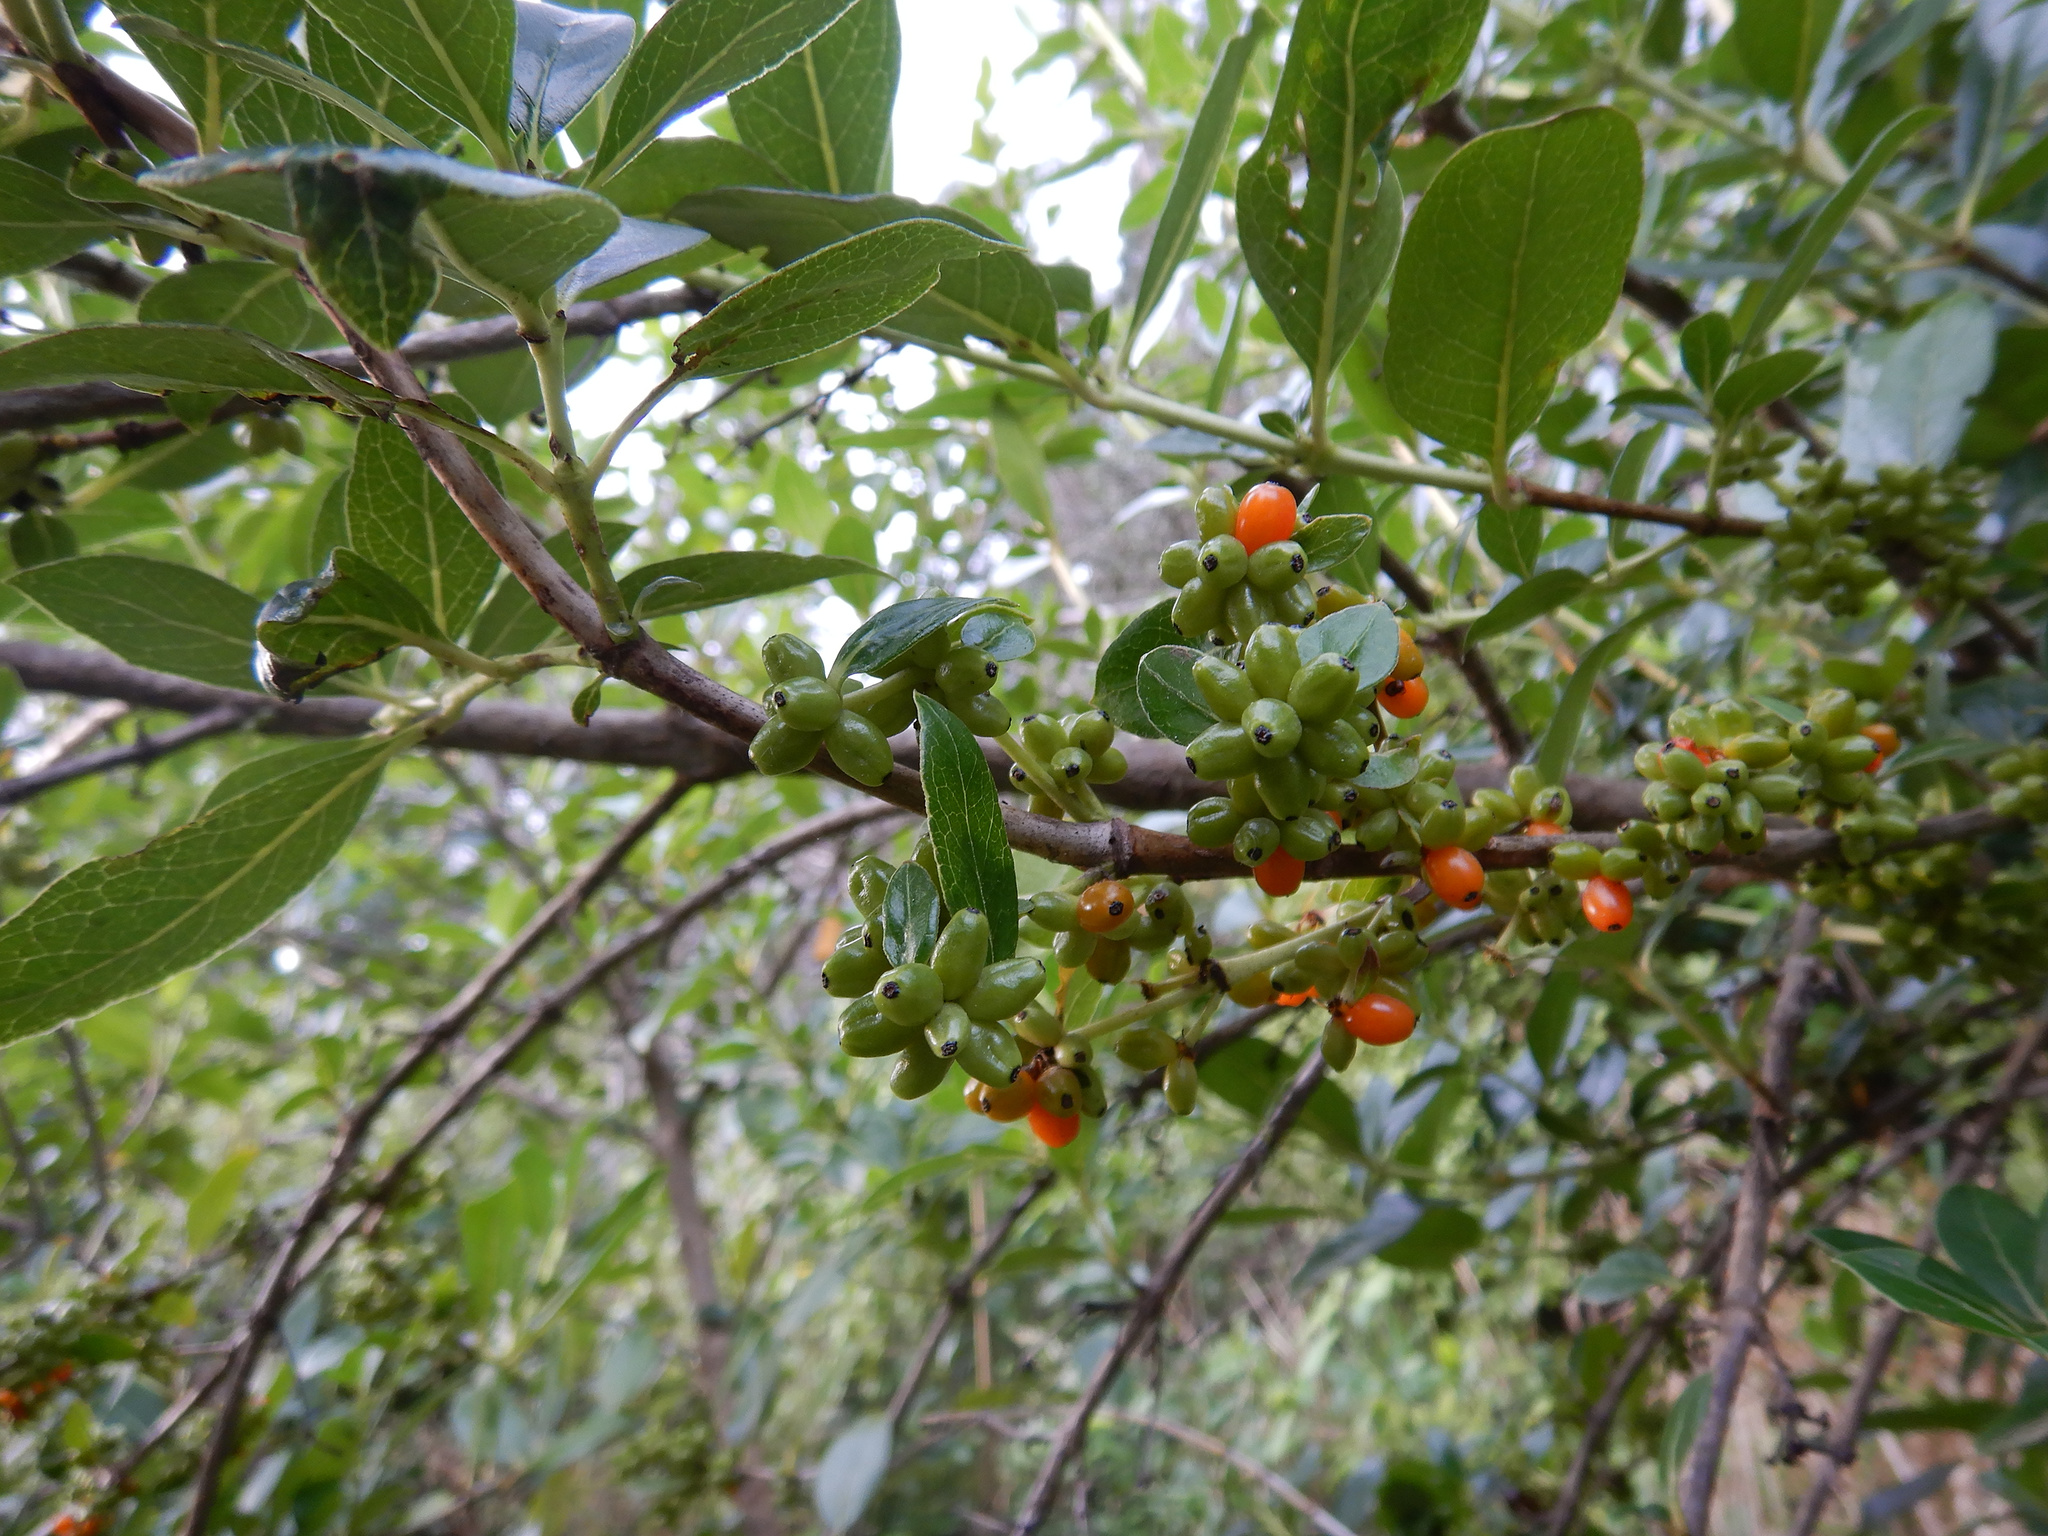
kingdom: Plantae
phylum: Tracheophyta
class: Magnoliopsida
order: Gentianales
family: Rubiaceae
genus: Coprosma
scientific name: Coprosma robusta
